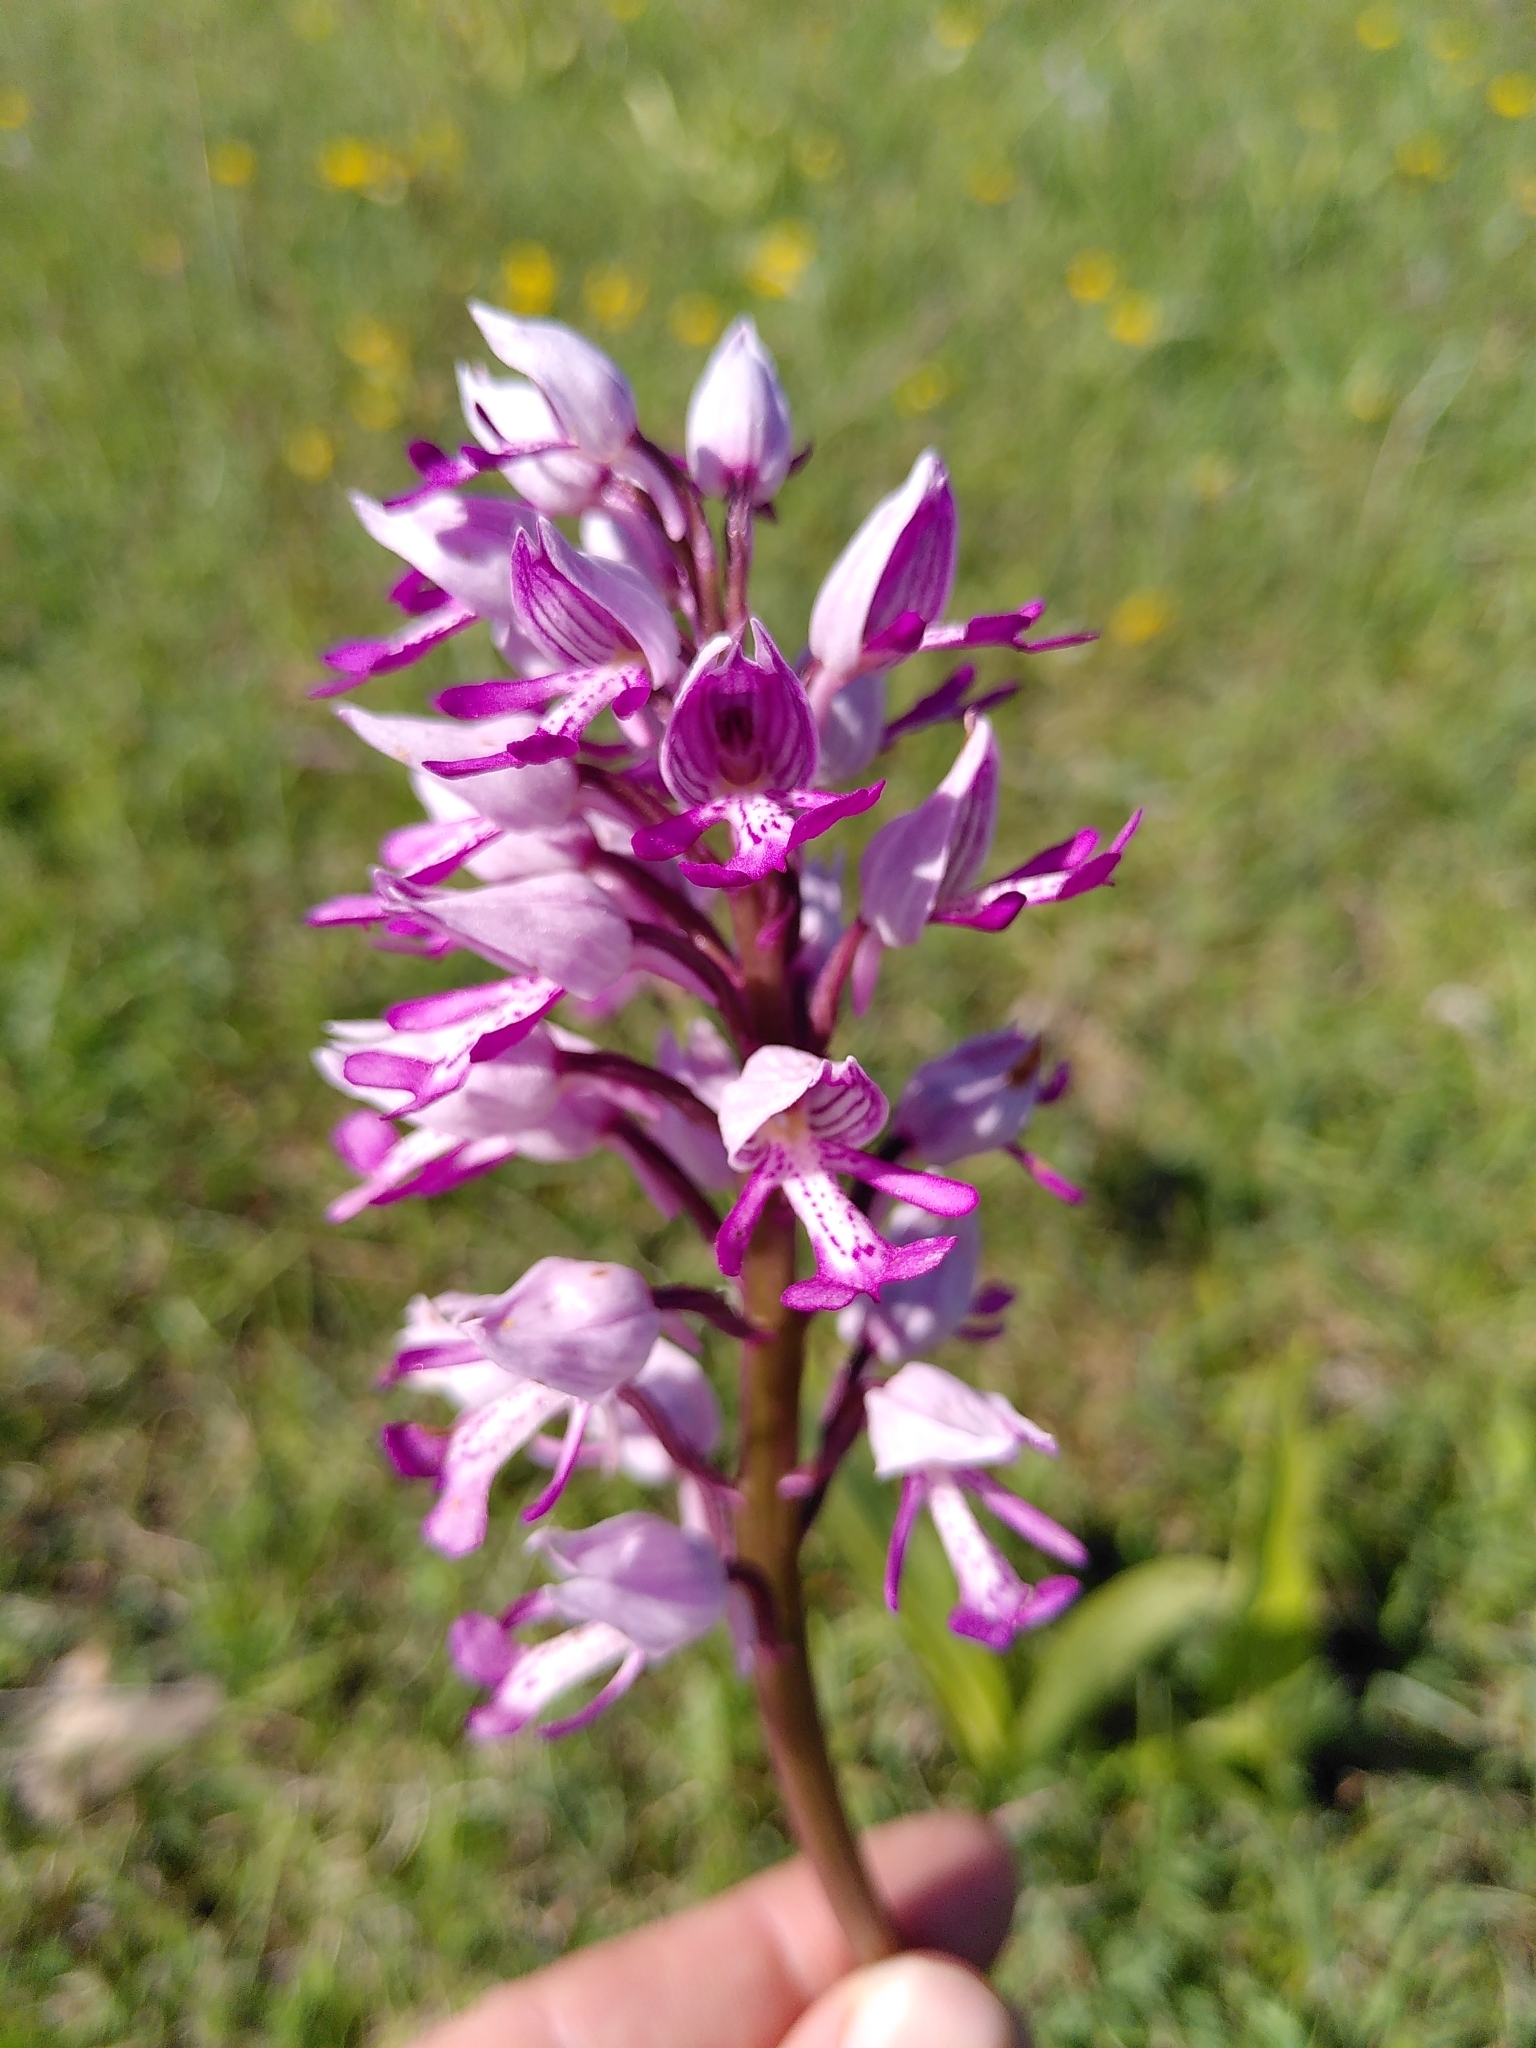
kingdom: Plantae
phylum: Tracheophyta
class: Liliopsida
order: Asparagales
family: Orchidaceae
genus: Orchis
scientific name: Orchis militaris
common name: Military orchid
